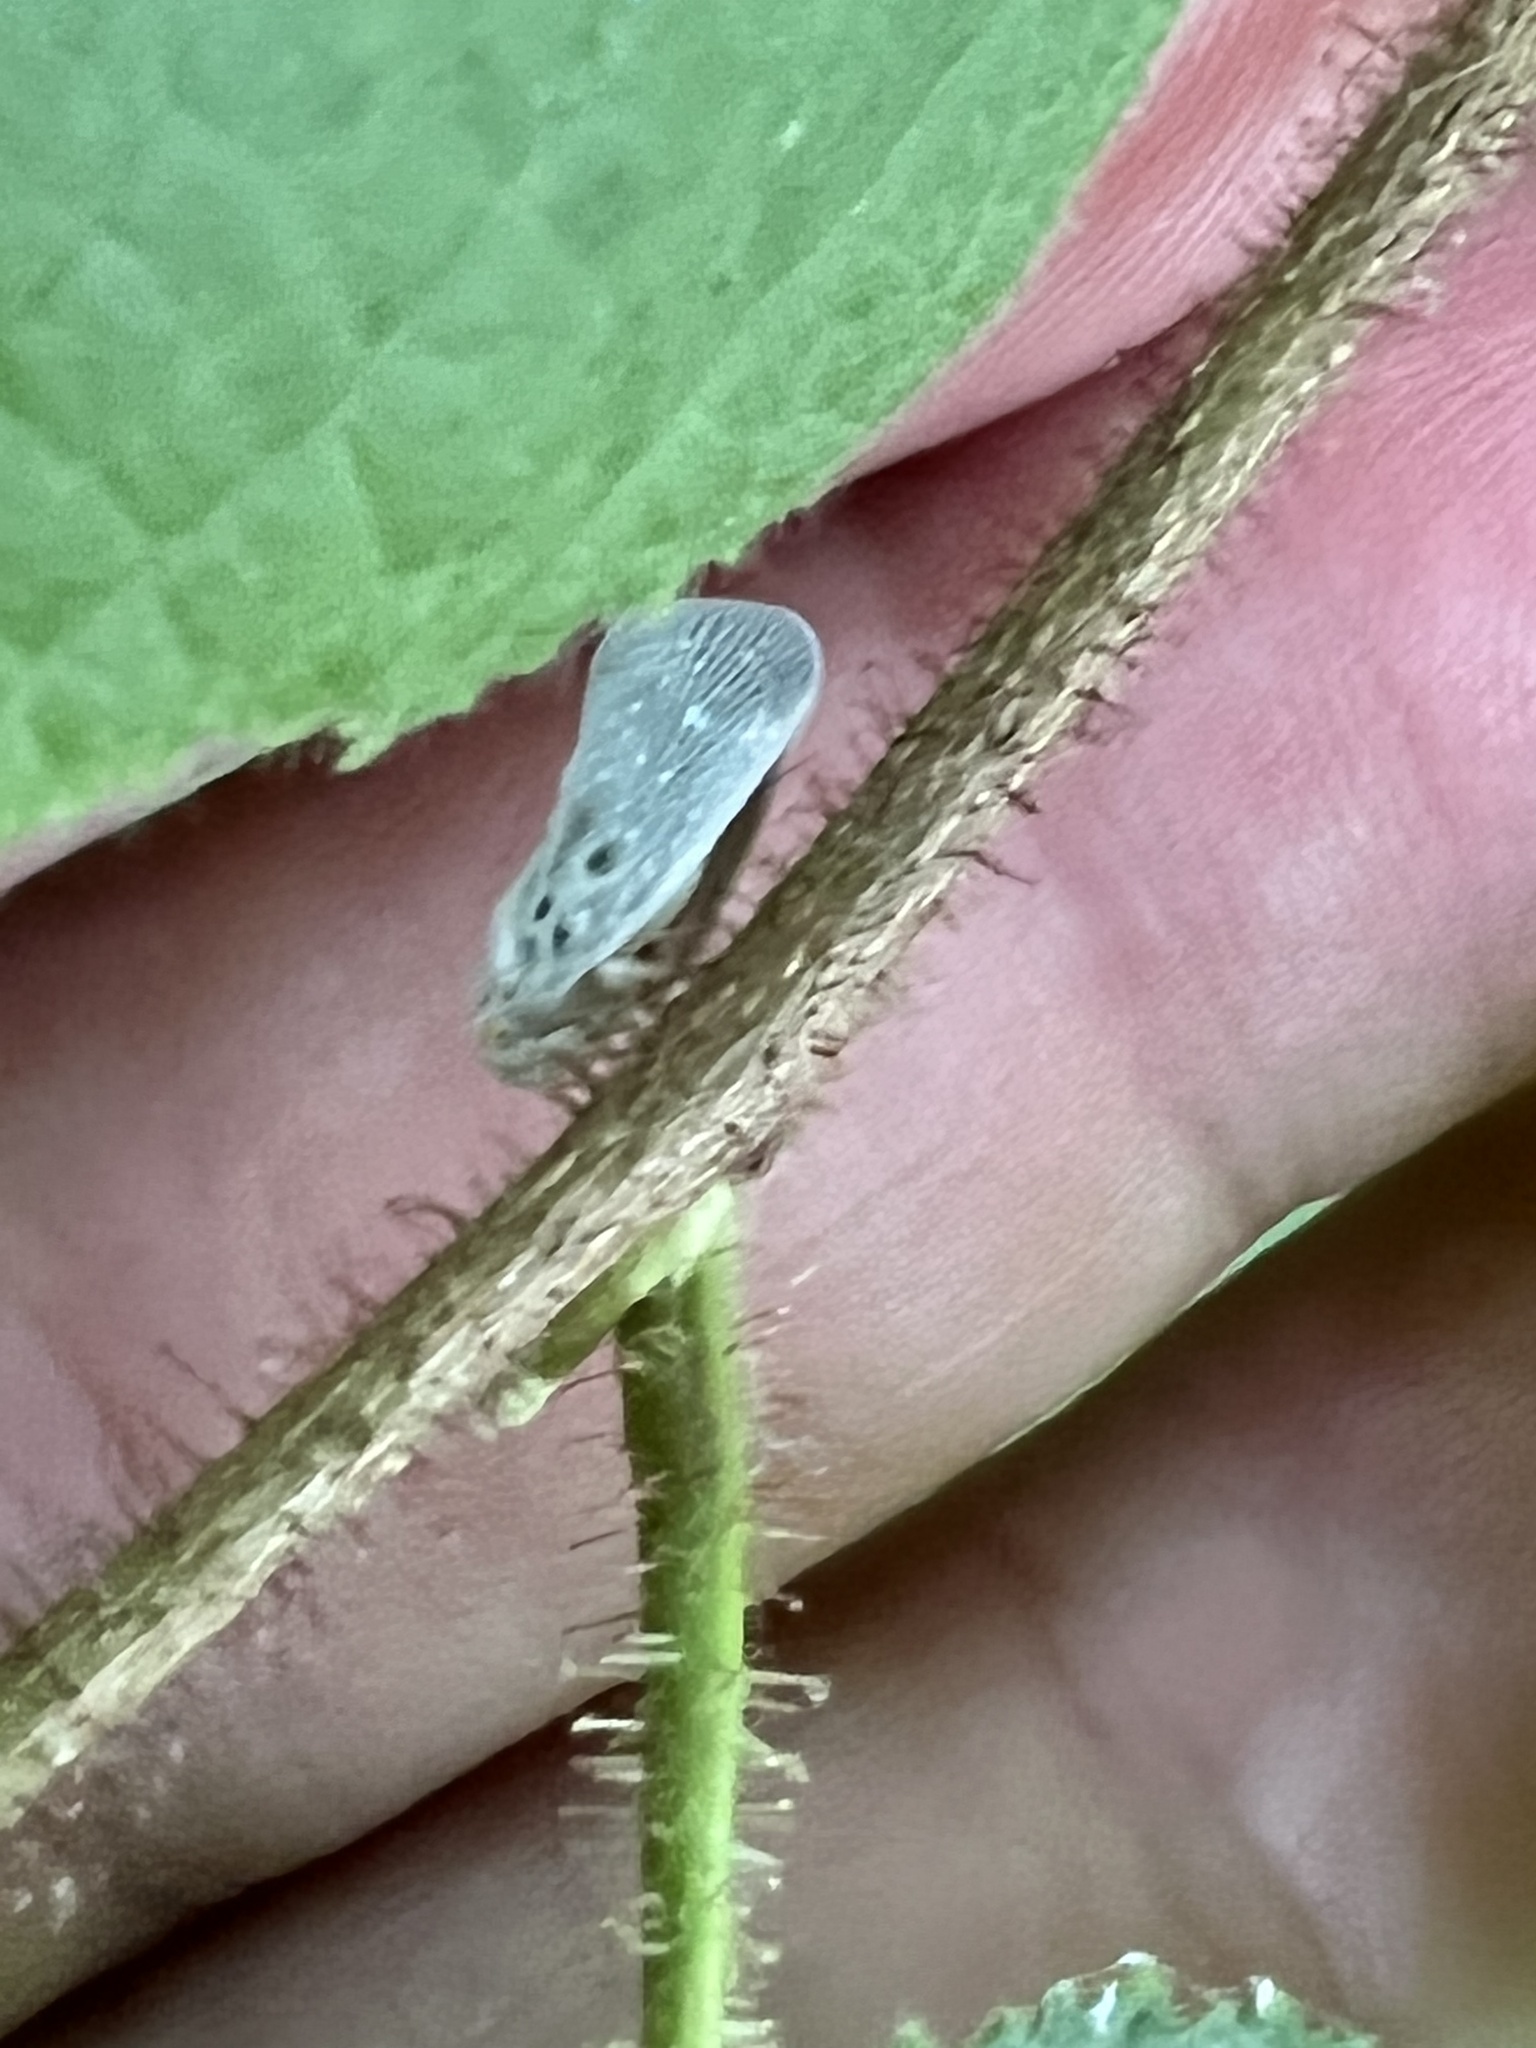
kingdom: Animalia
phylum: Arthropoda
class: Insecta
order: Hemiptera
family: Flatidae
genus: Metcalfa
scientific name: Metcalfa pruinosa
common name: Citrus flatid planthopper
